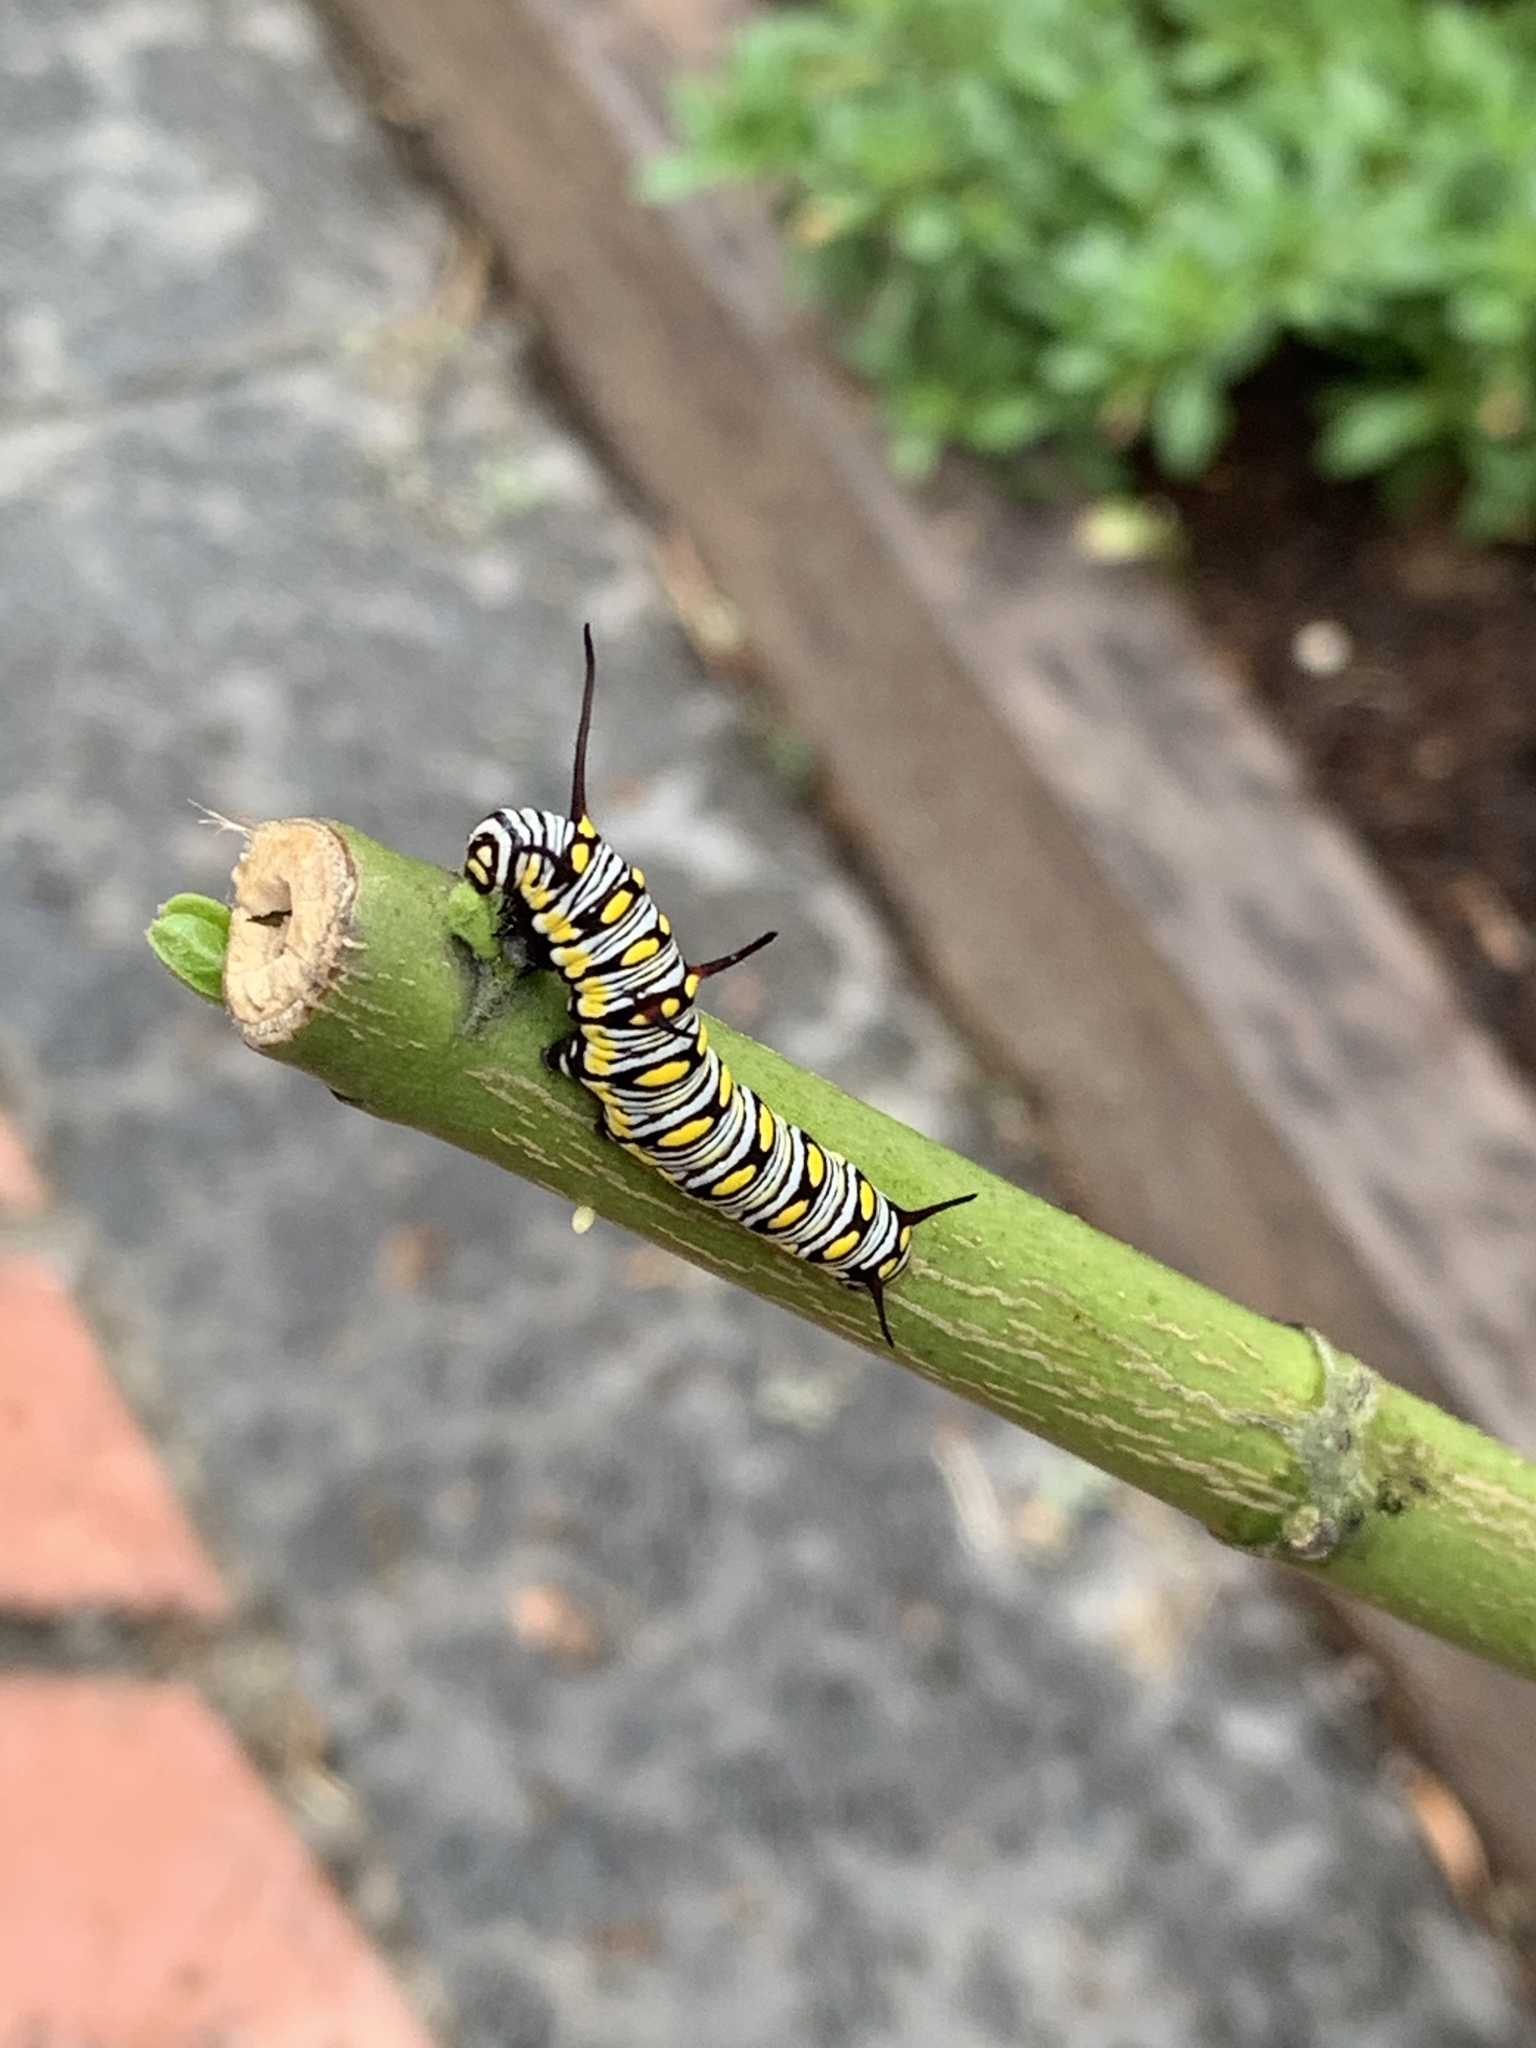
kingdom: Animalia
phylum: Arthropoda
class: Insecta
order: Lepidoptera
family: Nymphalidae
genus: Danaus
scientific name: Danaus chrysippus
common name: Plain tiger
